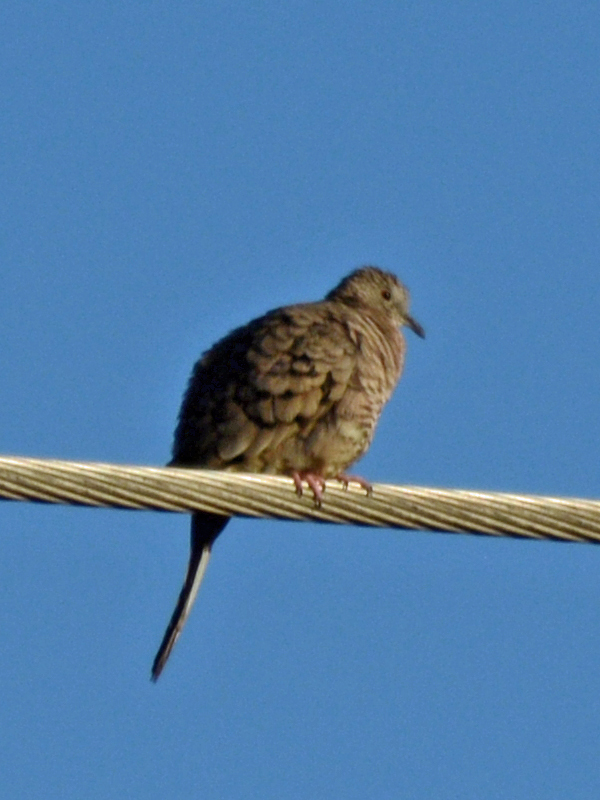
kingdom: Animalia
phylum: Chordata
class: Aves
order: Columbiformes
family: Columbidae
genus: Columbina
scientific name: Columbina inca
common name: Inca dove
